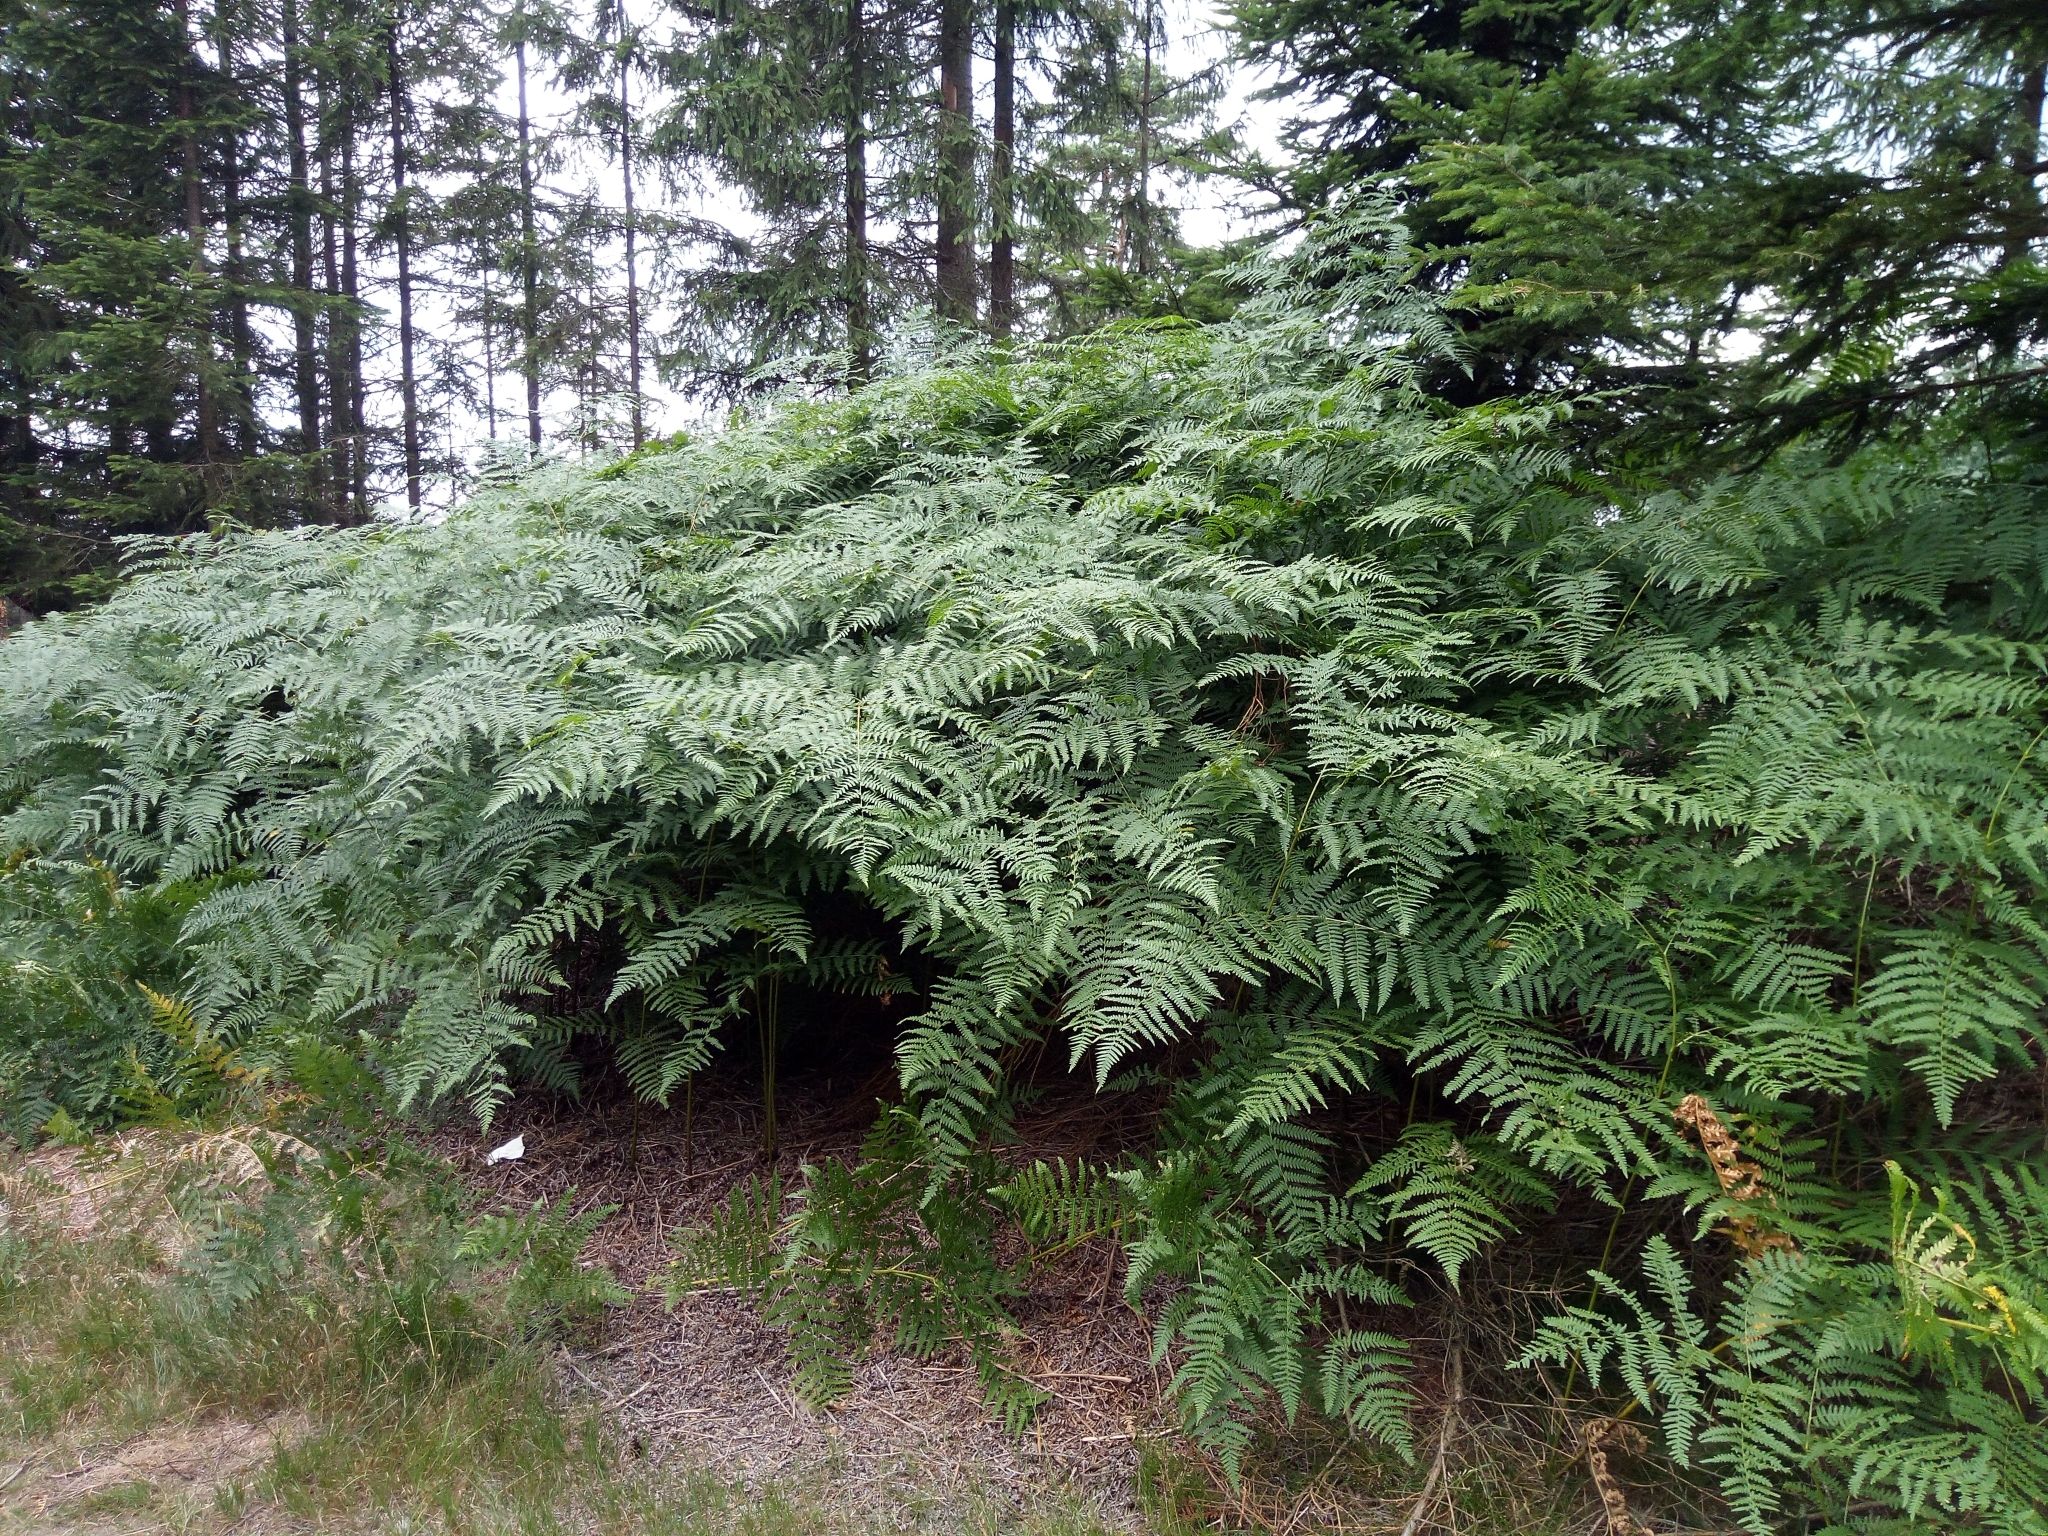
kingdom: Plantae
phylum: Tracheophyta
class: Polypodiopsida
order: Polypodiales
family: Dennstaedtiaceae
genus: Pteridium
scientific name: Pteridium aquilinum
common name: Bracken
